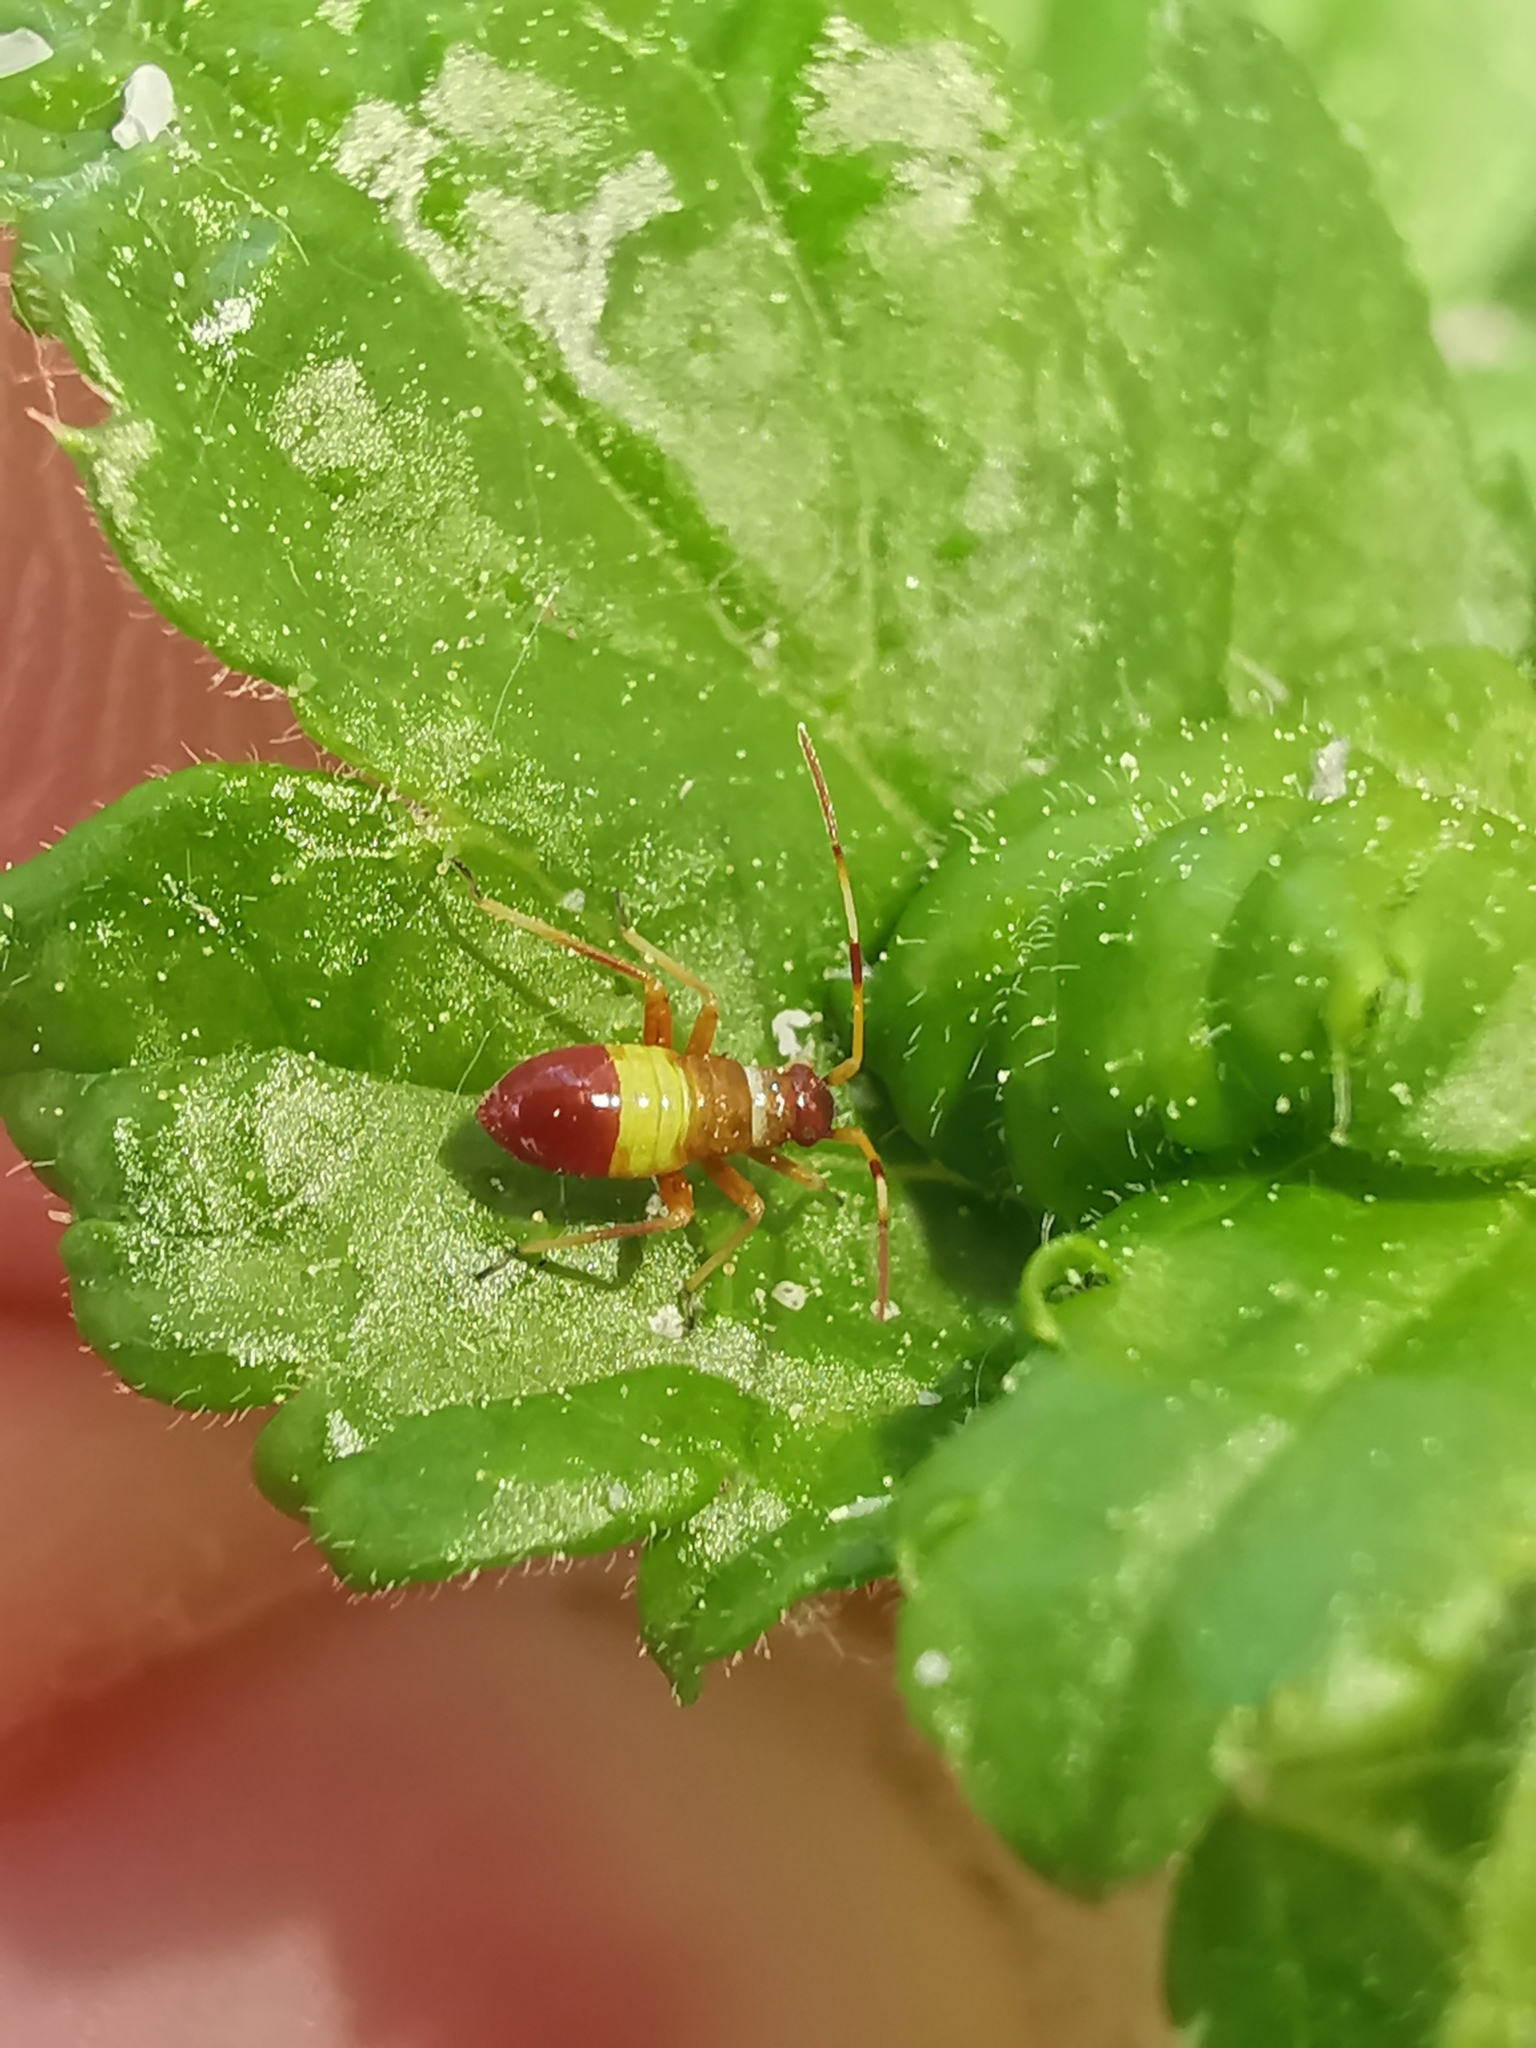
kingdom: Animalia
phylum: Arthropoda
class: Insecta
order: Hemiptera
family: Miridae
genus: Closterotomus
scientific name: Closterotomus biclavatus
